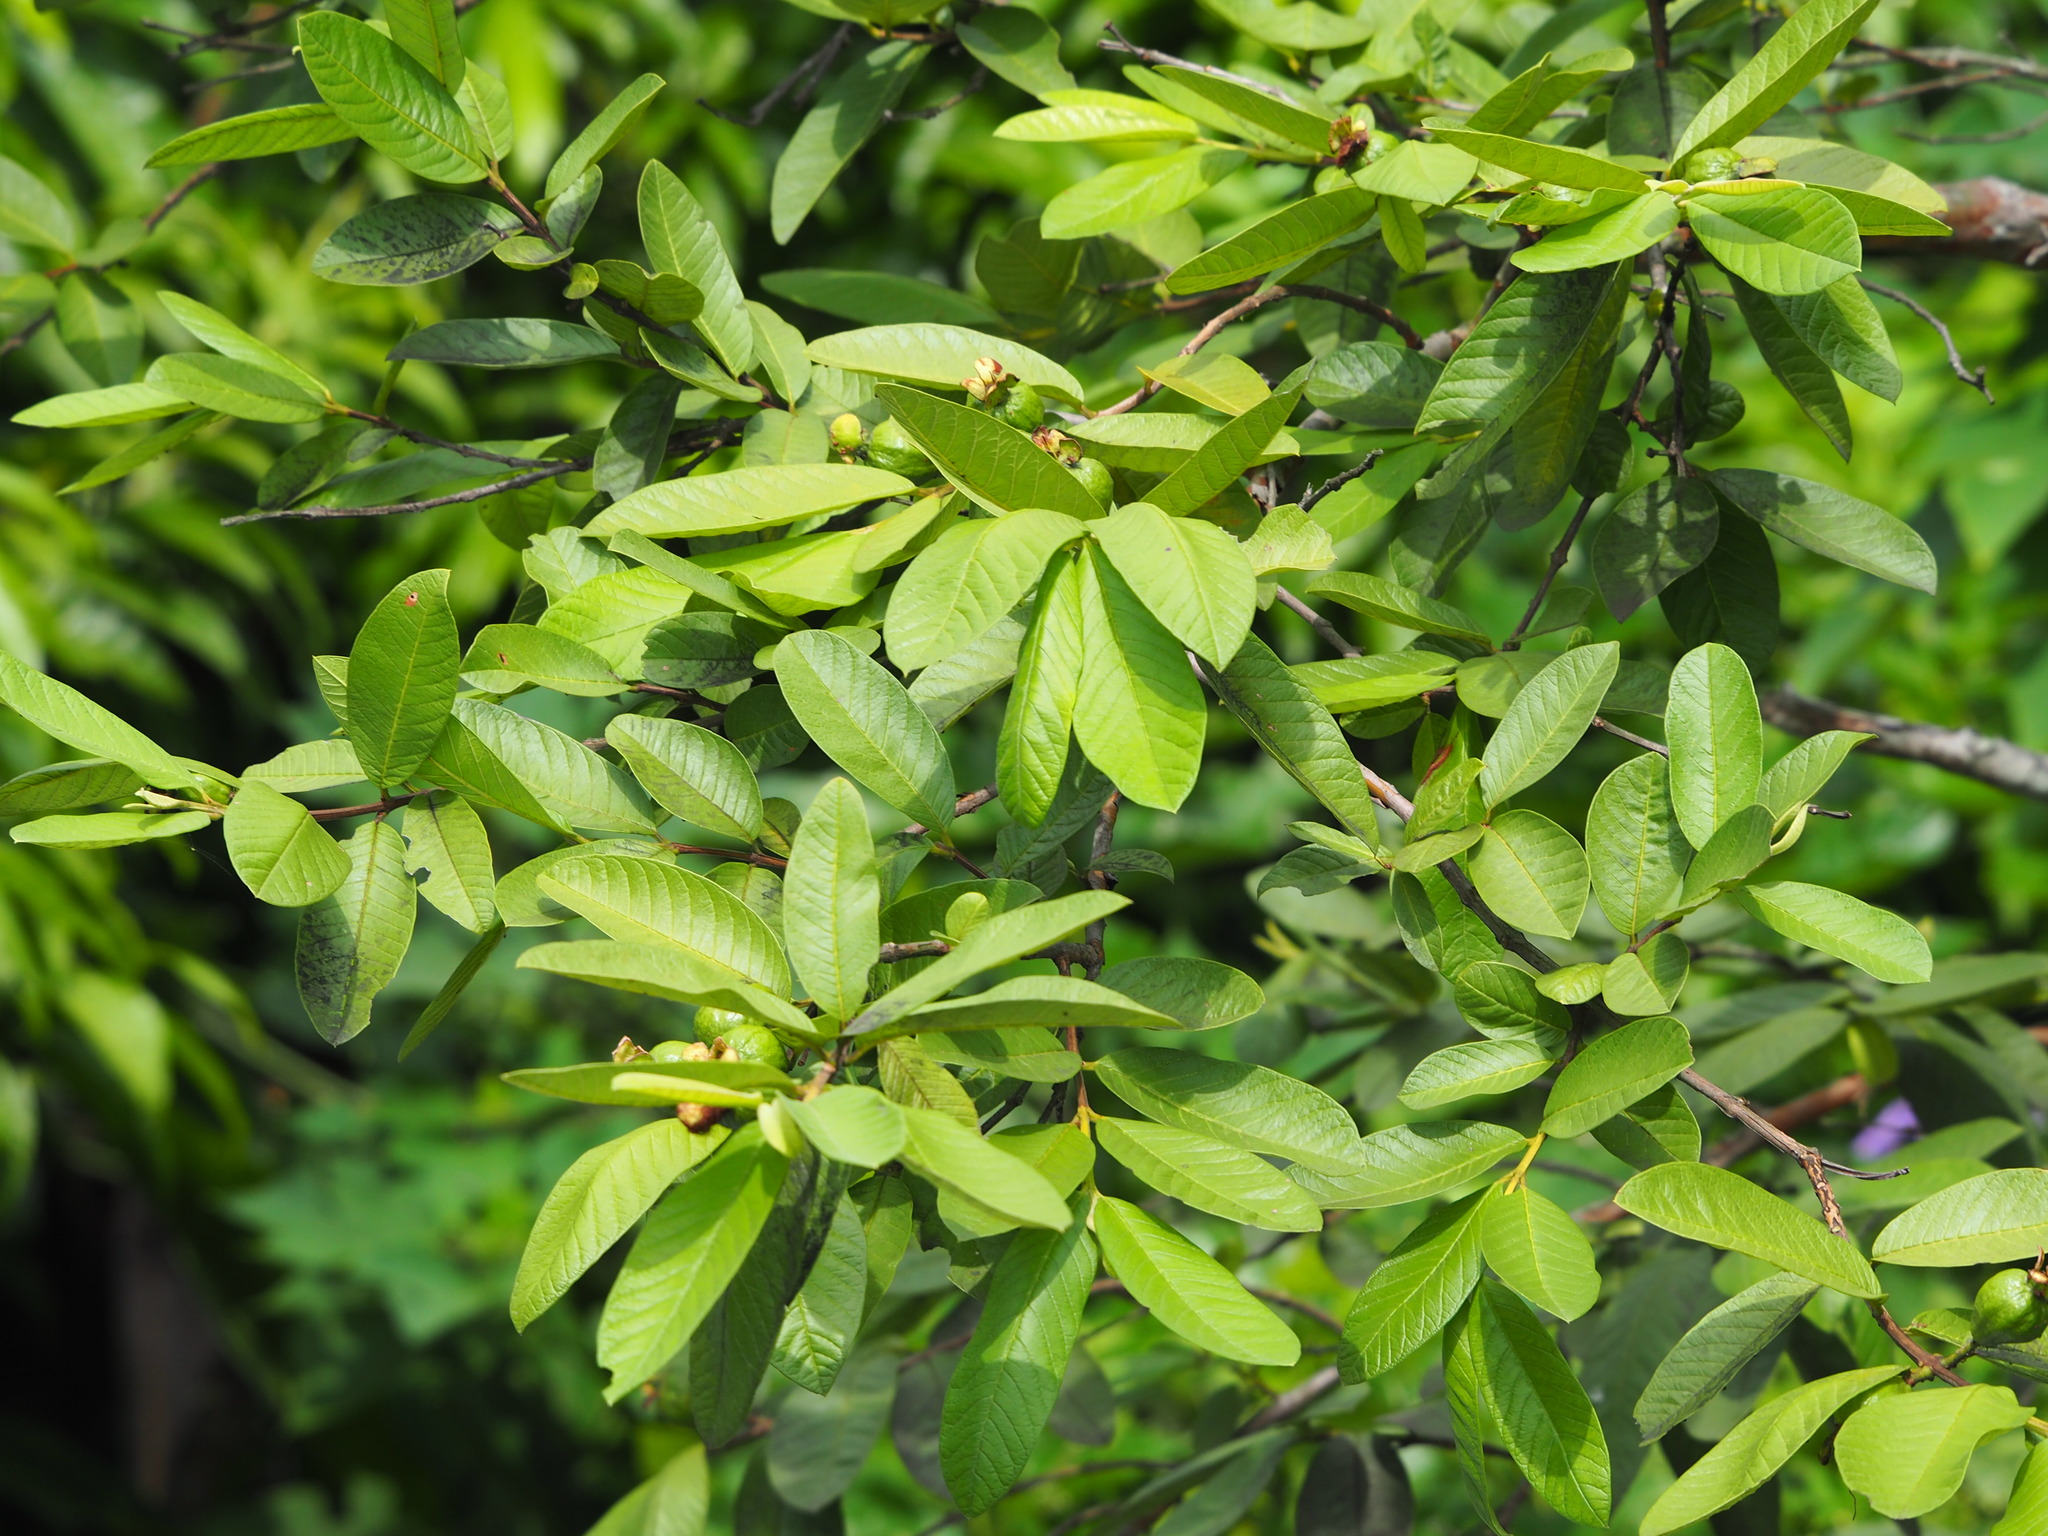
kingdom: Plantae
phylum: Tracheophyta
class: Magnoliopsida
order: Myrtales
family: Myrtaceae
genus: Psidium
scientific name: Psidium guajava
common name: Guava
